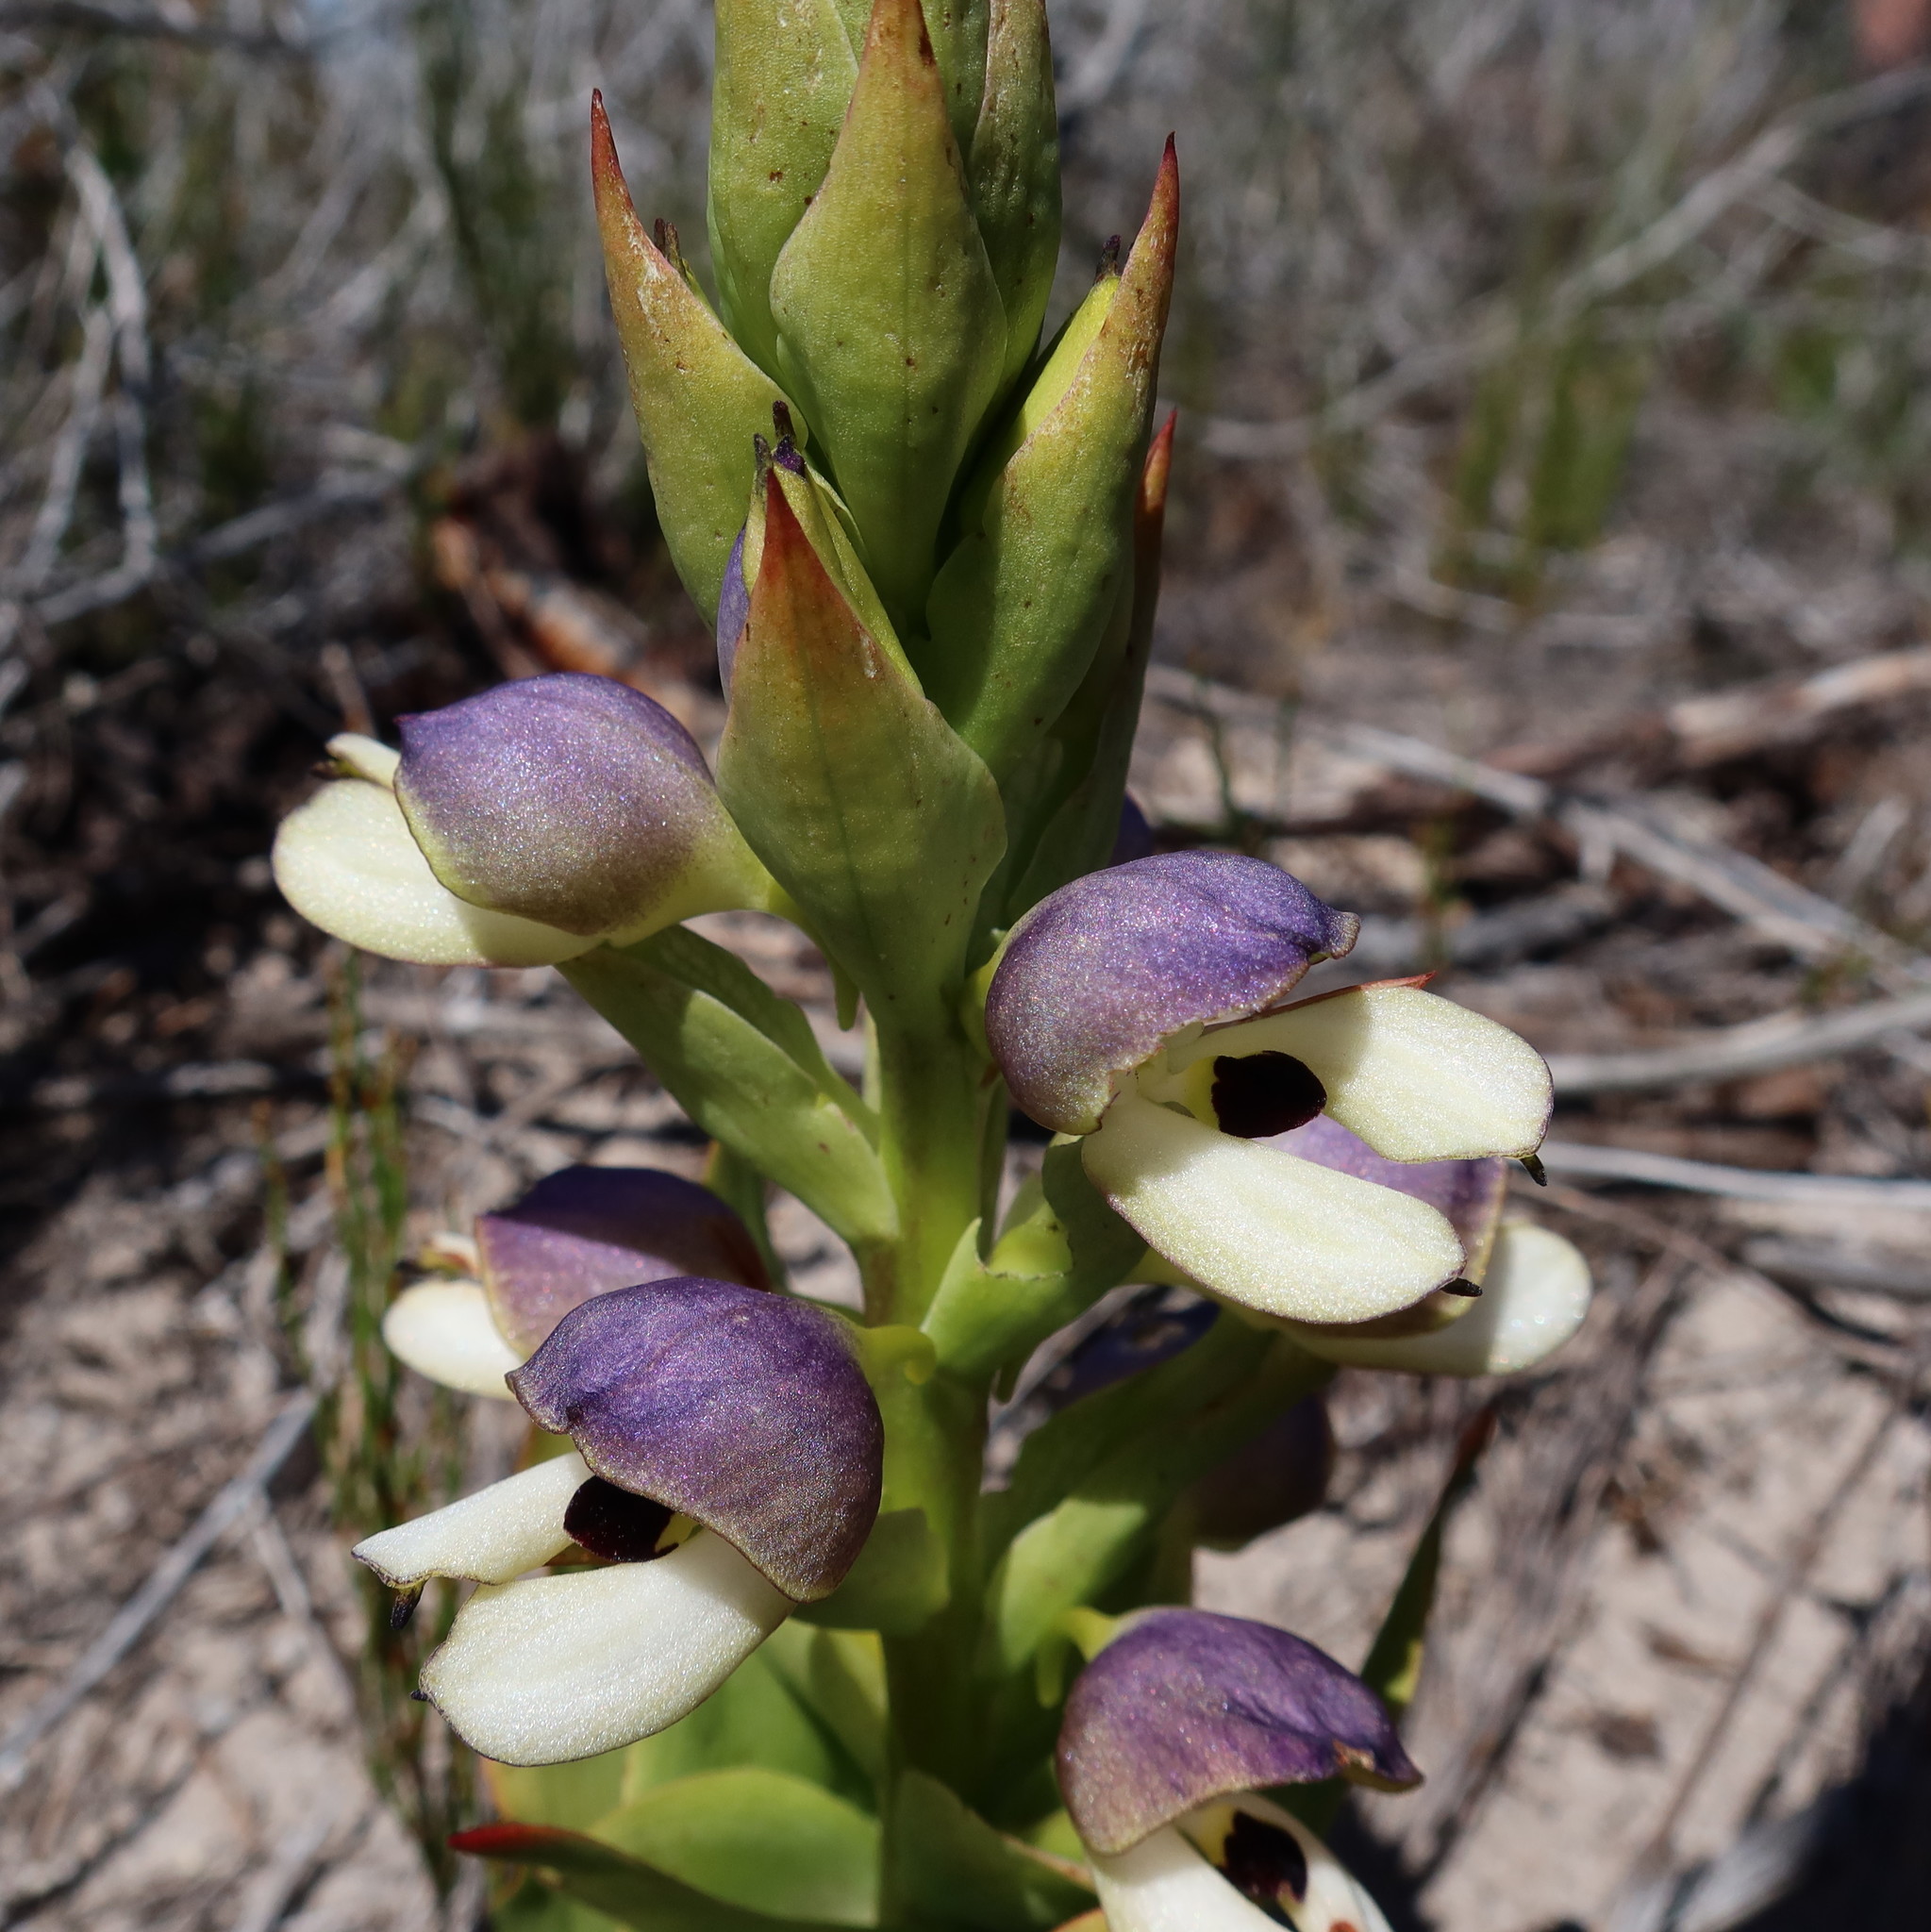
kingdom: Plantae
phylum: Tracheophyta
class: Liliopsida
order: Asparagales
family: Orchidaceae
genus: Disa
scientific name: Disa cornuta
